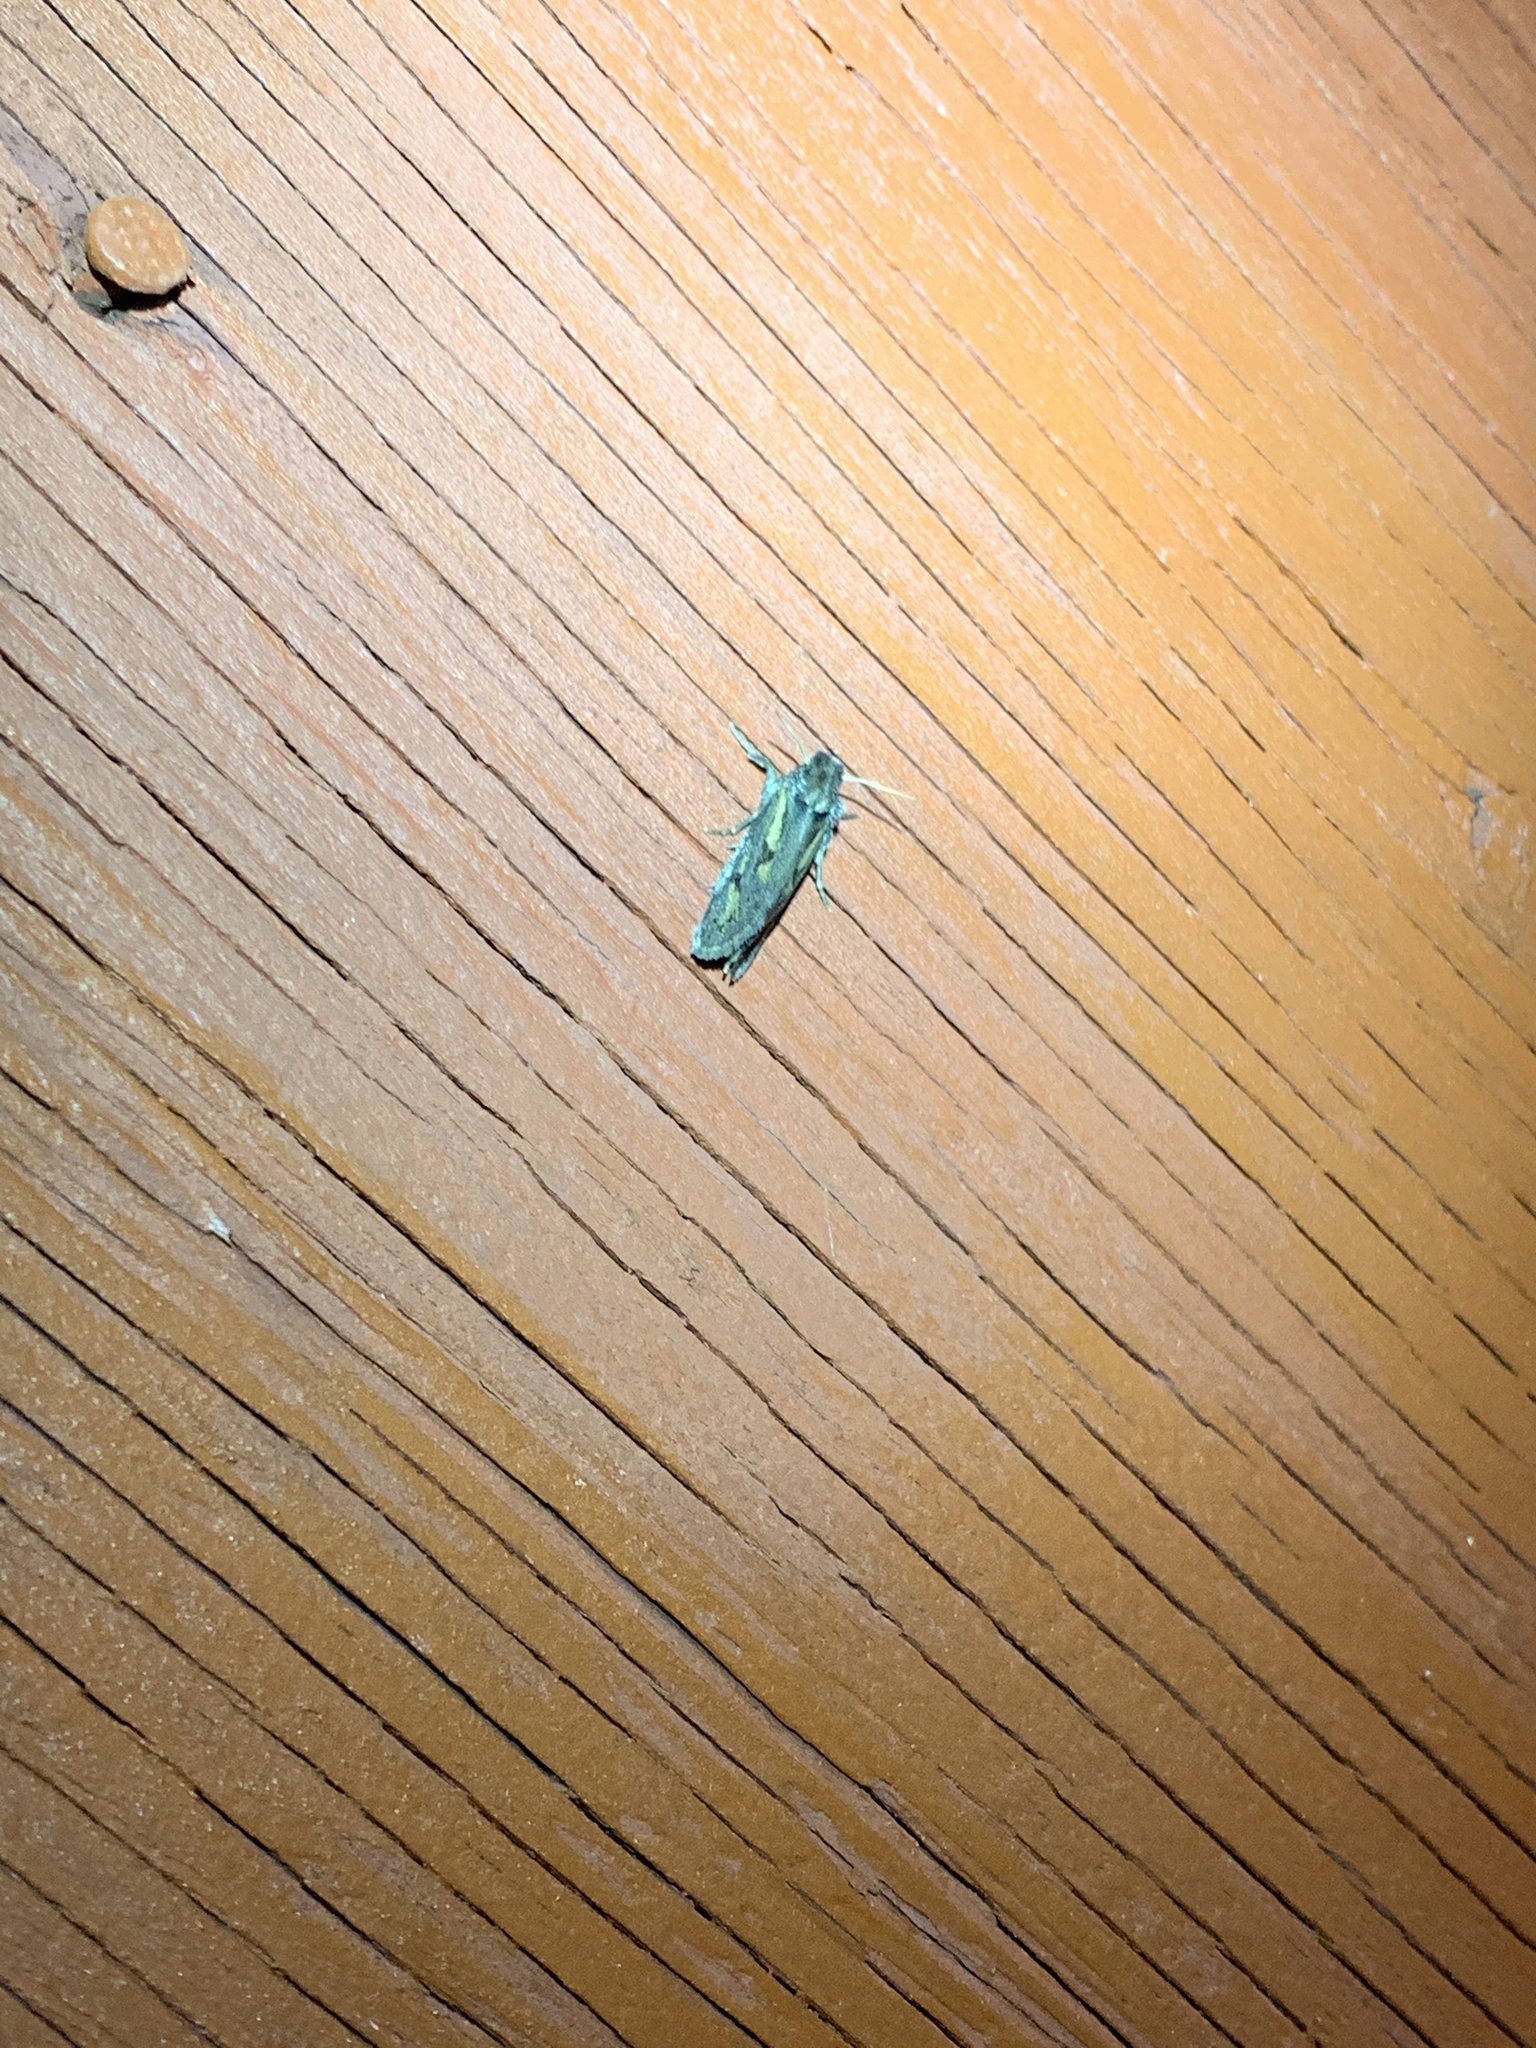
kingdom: Animalia
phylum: Arthropoda
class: Insecta
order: Lepidoptera
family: Tineidae
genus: Acrolophus
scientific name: Acrolophus popeanella
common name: Clemens' grass tubeworm moth
